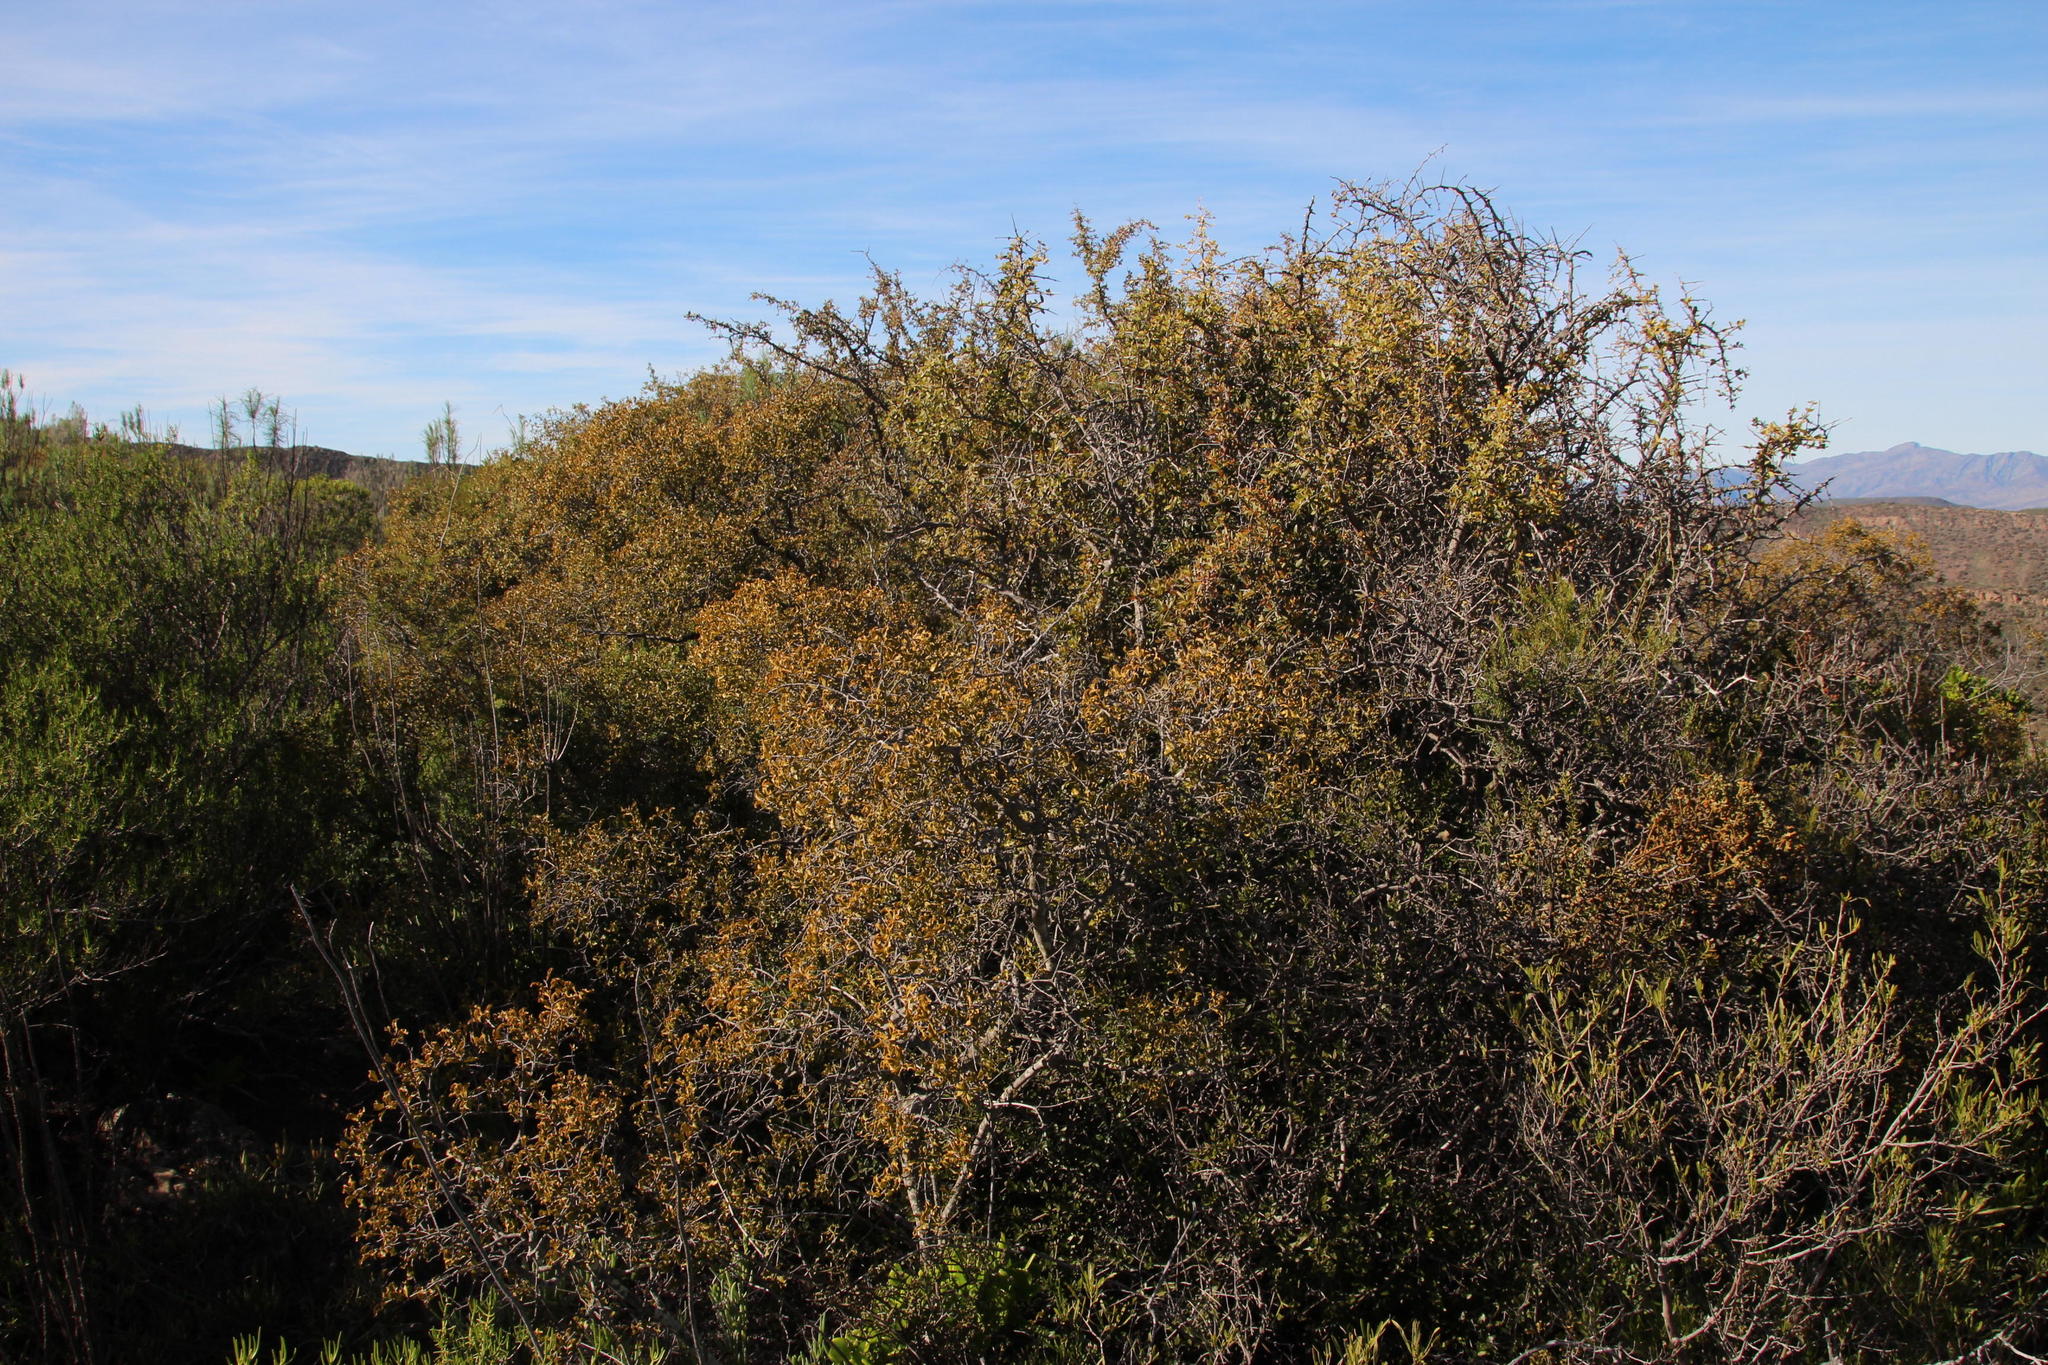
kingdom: Plantae
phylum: Tracheophyta
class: Magnoliopsida
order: Ericales
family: Ebenaceae
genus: Euclea
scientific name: Euclea undulata
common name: Small-leaved guarri
